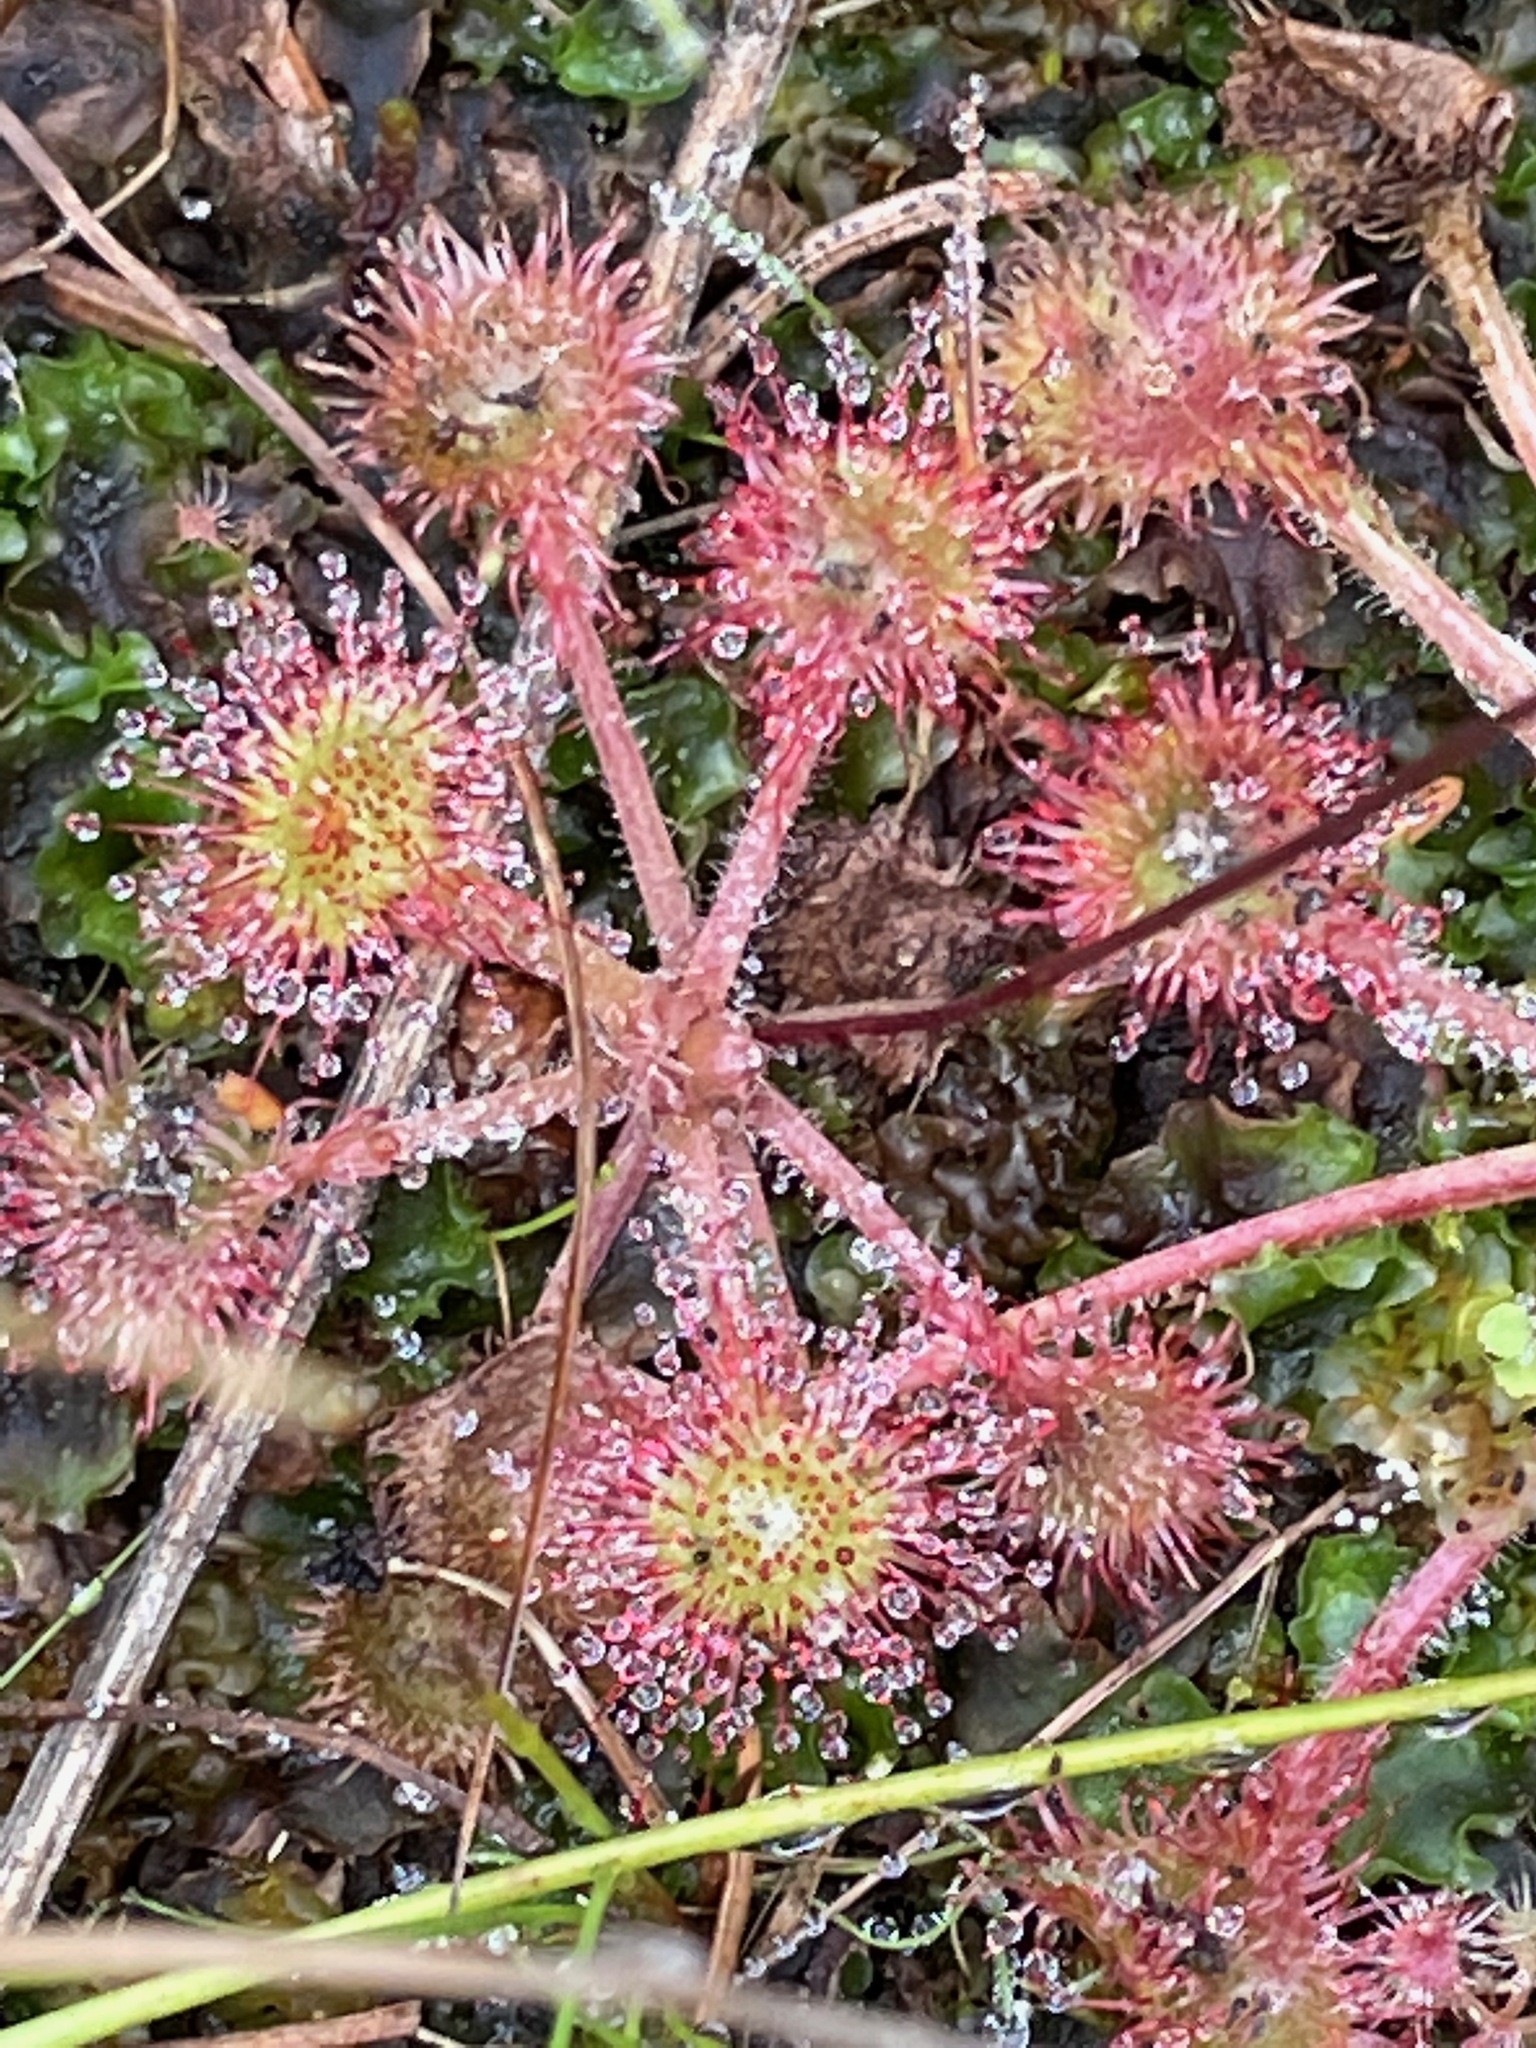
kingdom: Plantae
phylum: Tracheophyta
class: Magnoliopsida
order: Caryophyllales
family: Droseraceae
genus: Drosera
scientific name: Drosera rotundifolia
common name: Round-leaved sundew
